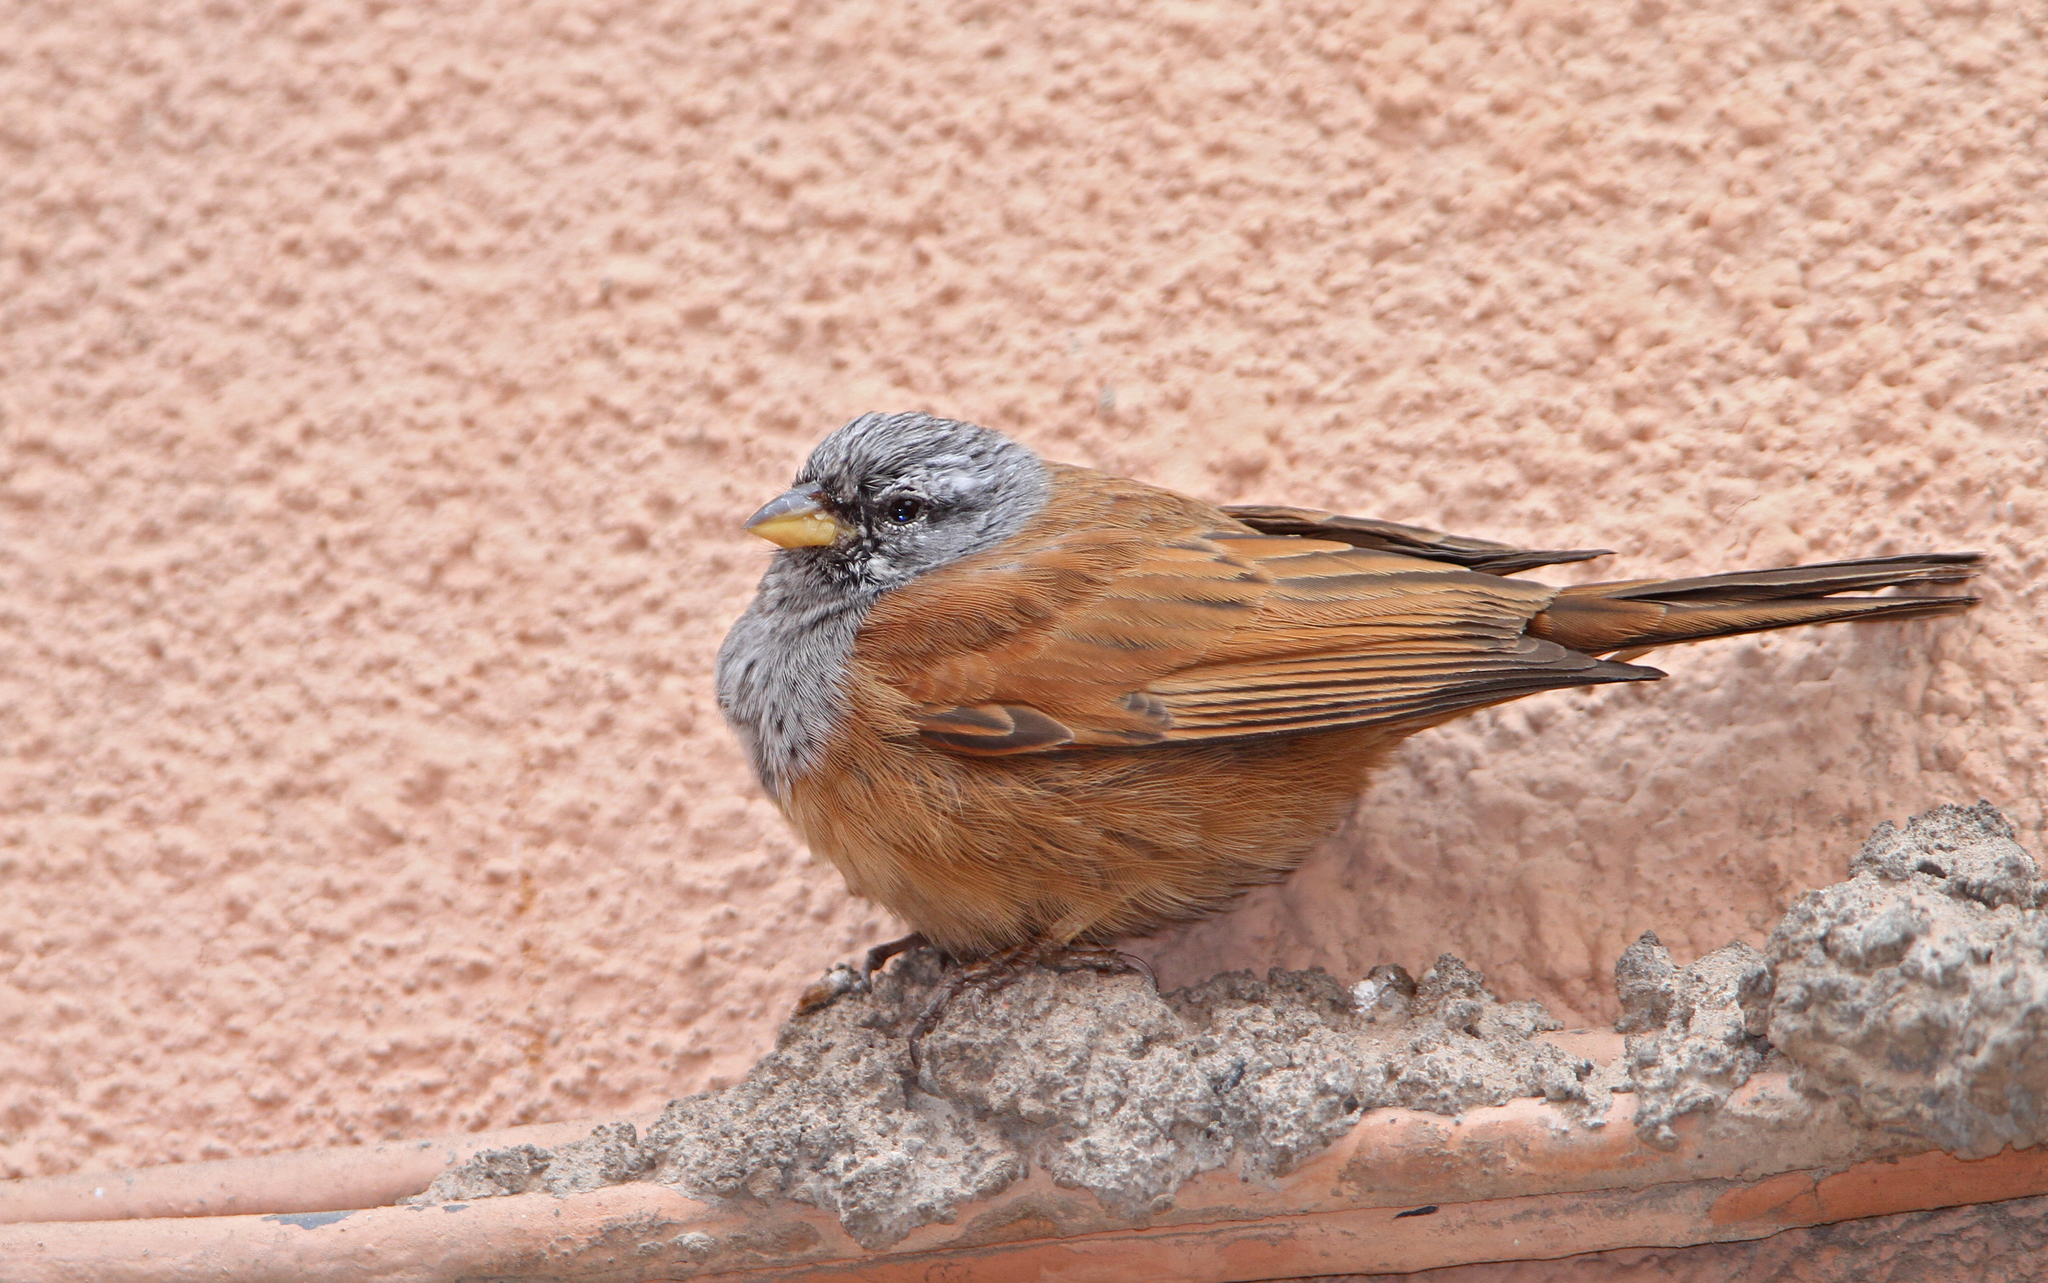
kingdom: Animalia
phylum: Chordata
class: Aves
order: Passeriformes
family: Emberizidae
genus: Emberiza
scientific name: Emberiza sahari
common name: House bunting
